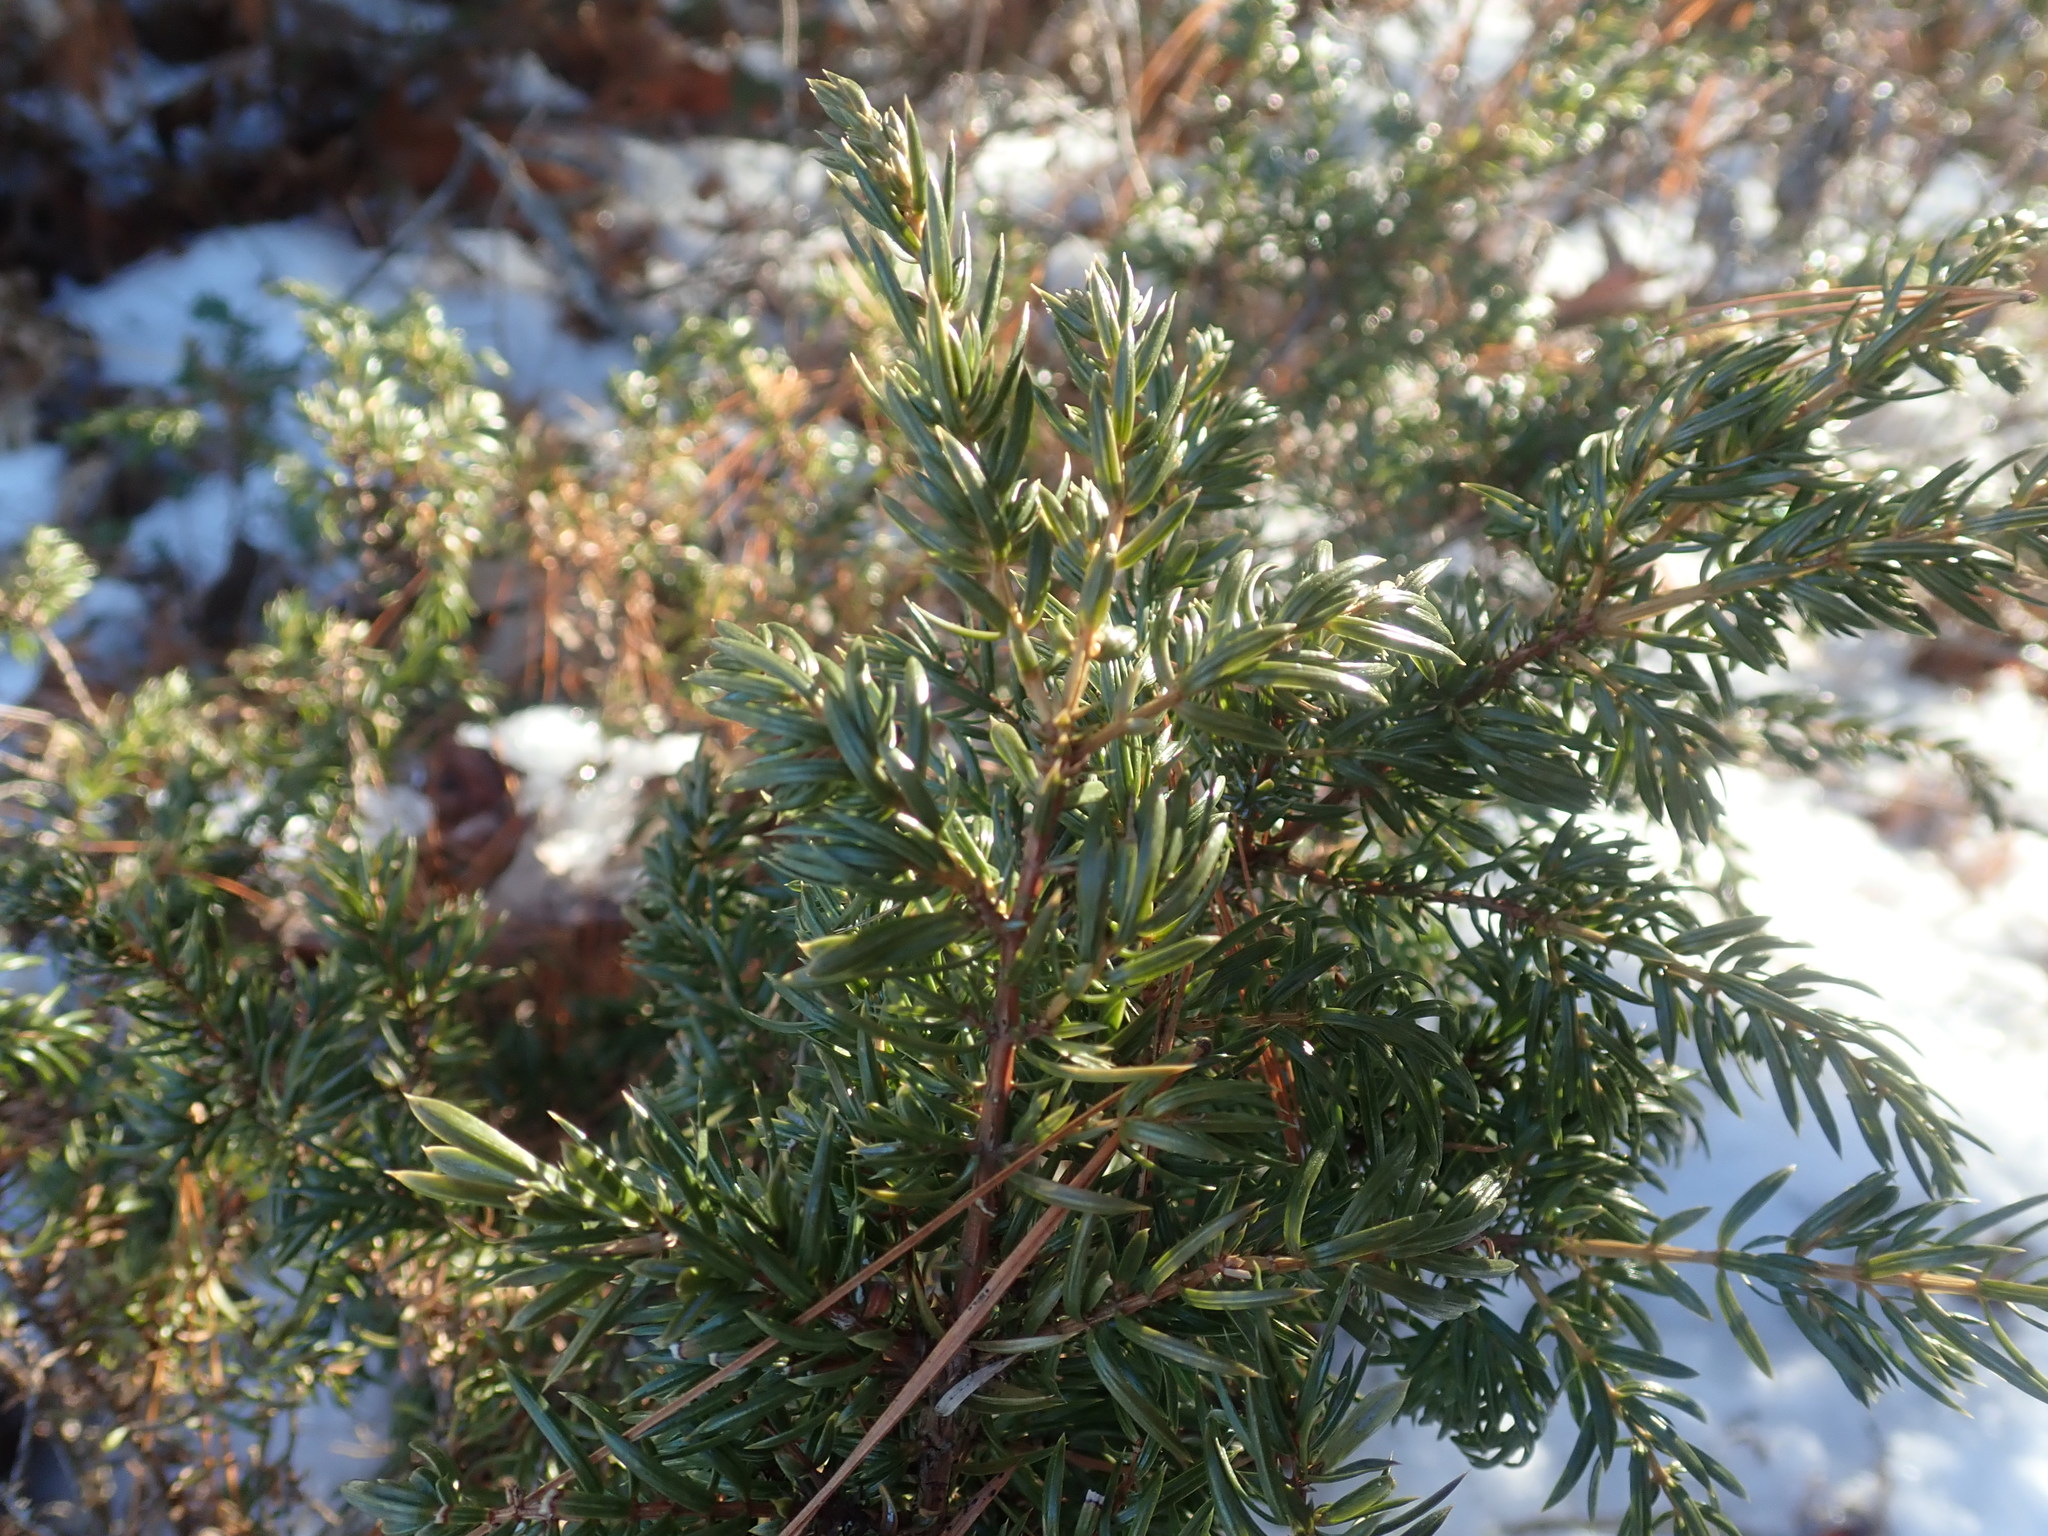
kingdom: Plantae
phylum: Tracheophyta
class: Pinopsida
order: Pinales
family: Cupressaceae
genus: Juniperus
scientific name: Juniperus communis
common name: Common juniper
